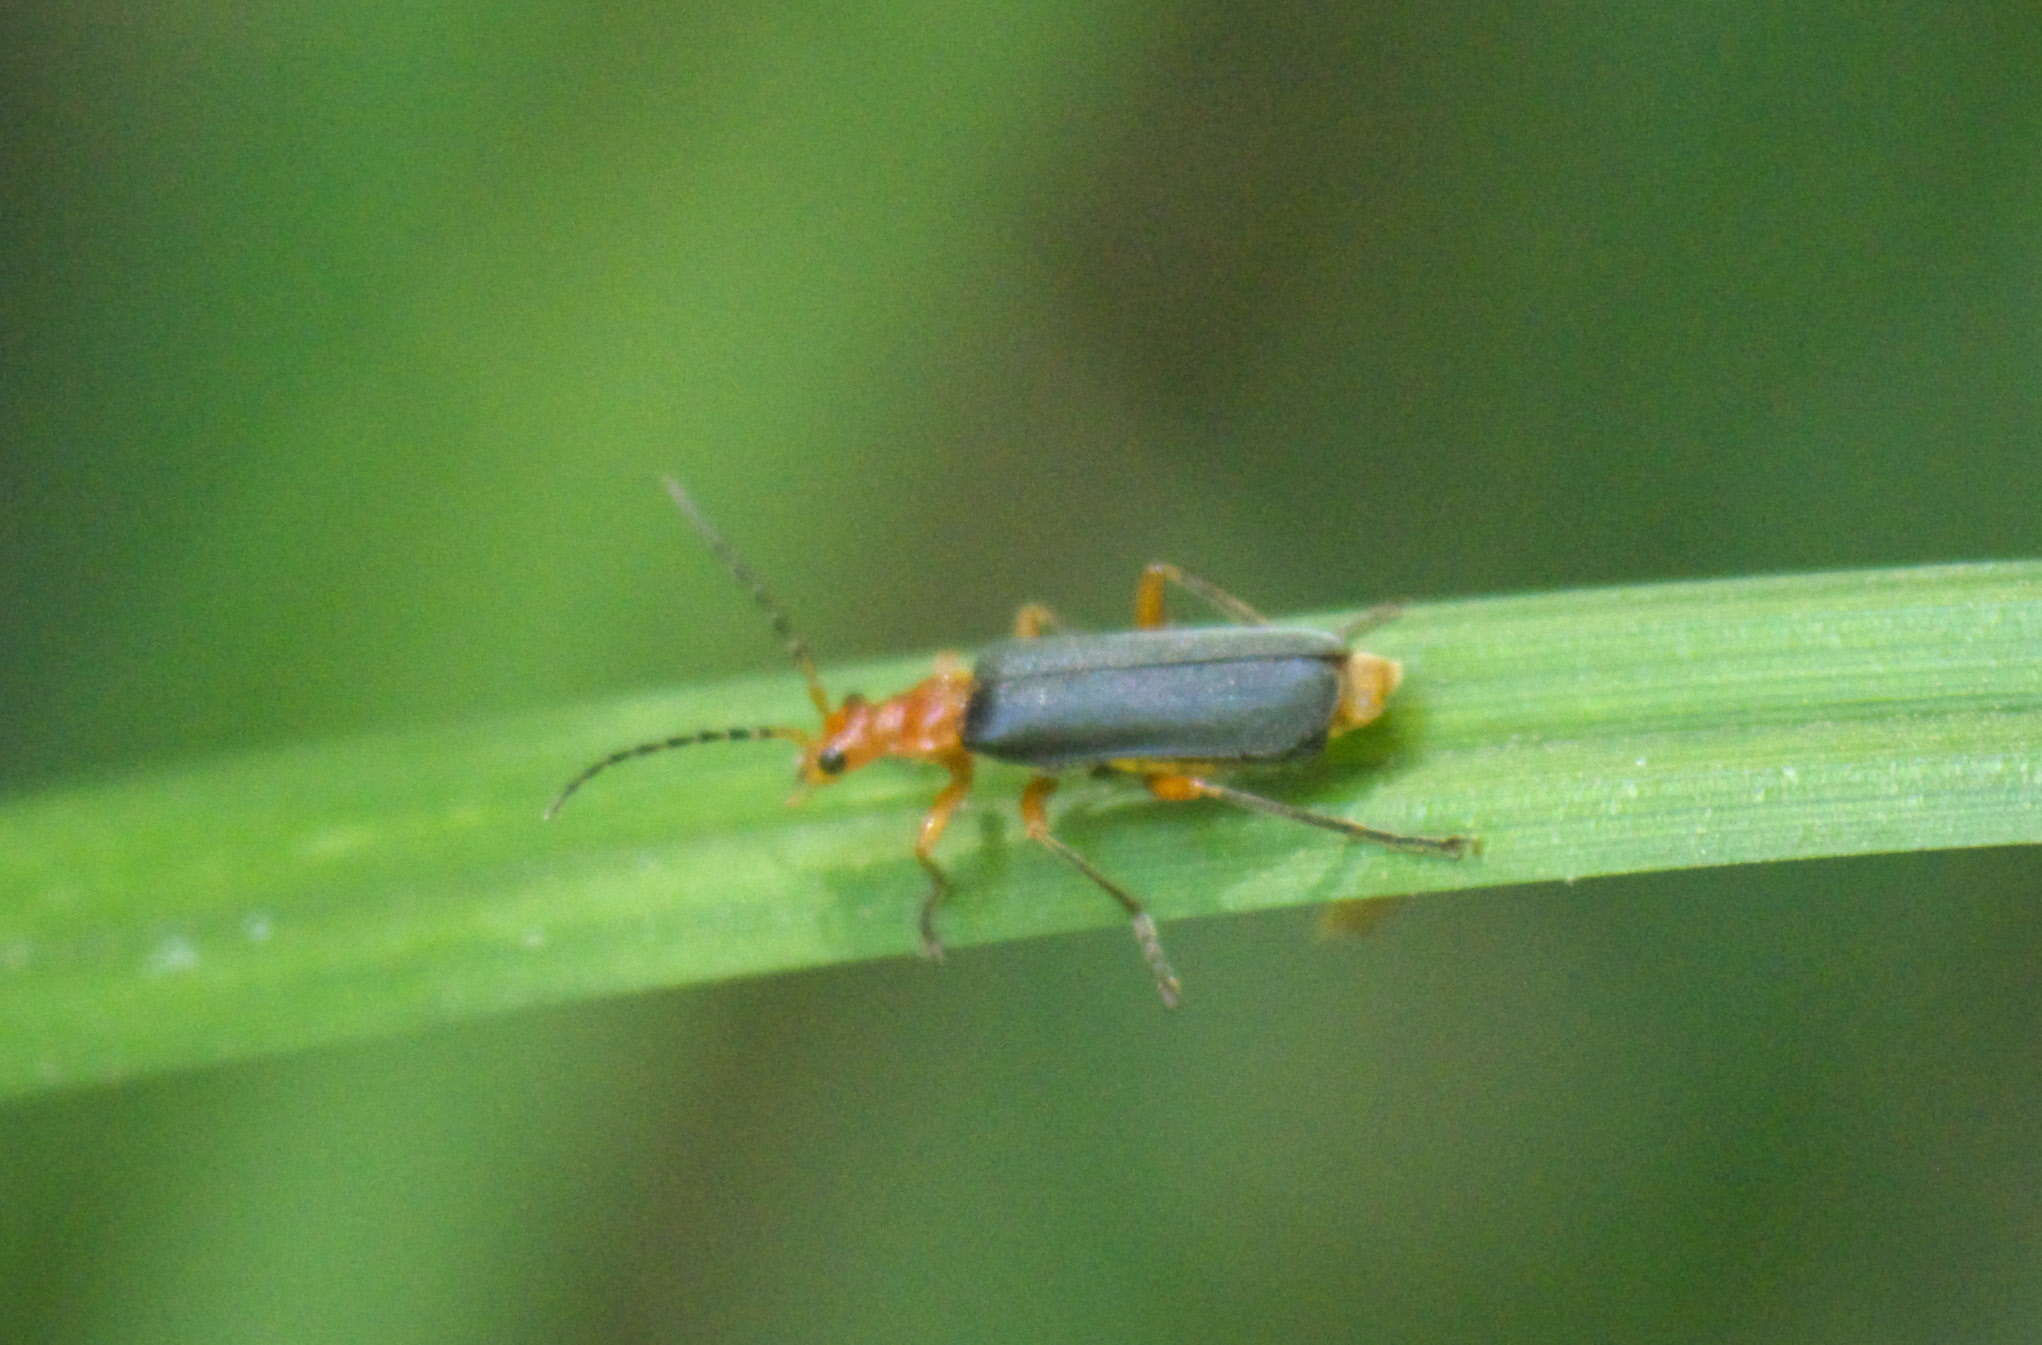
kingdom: Animalia
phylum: Arthropoda
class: Insecta
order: Coleoptera
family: Cantharidae
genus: Podabrus
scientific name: Podabrus tomentosus
